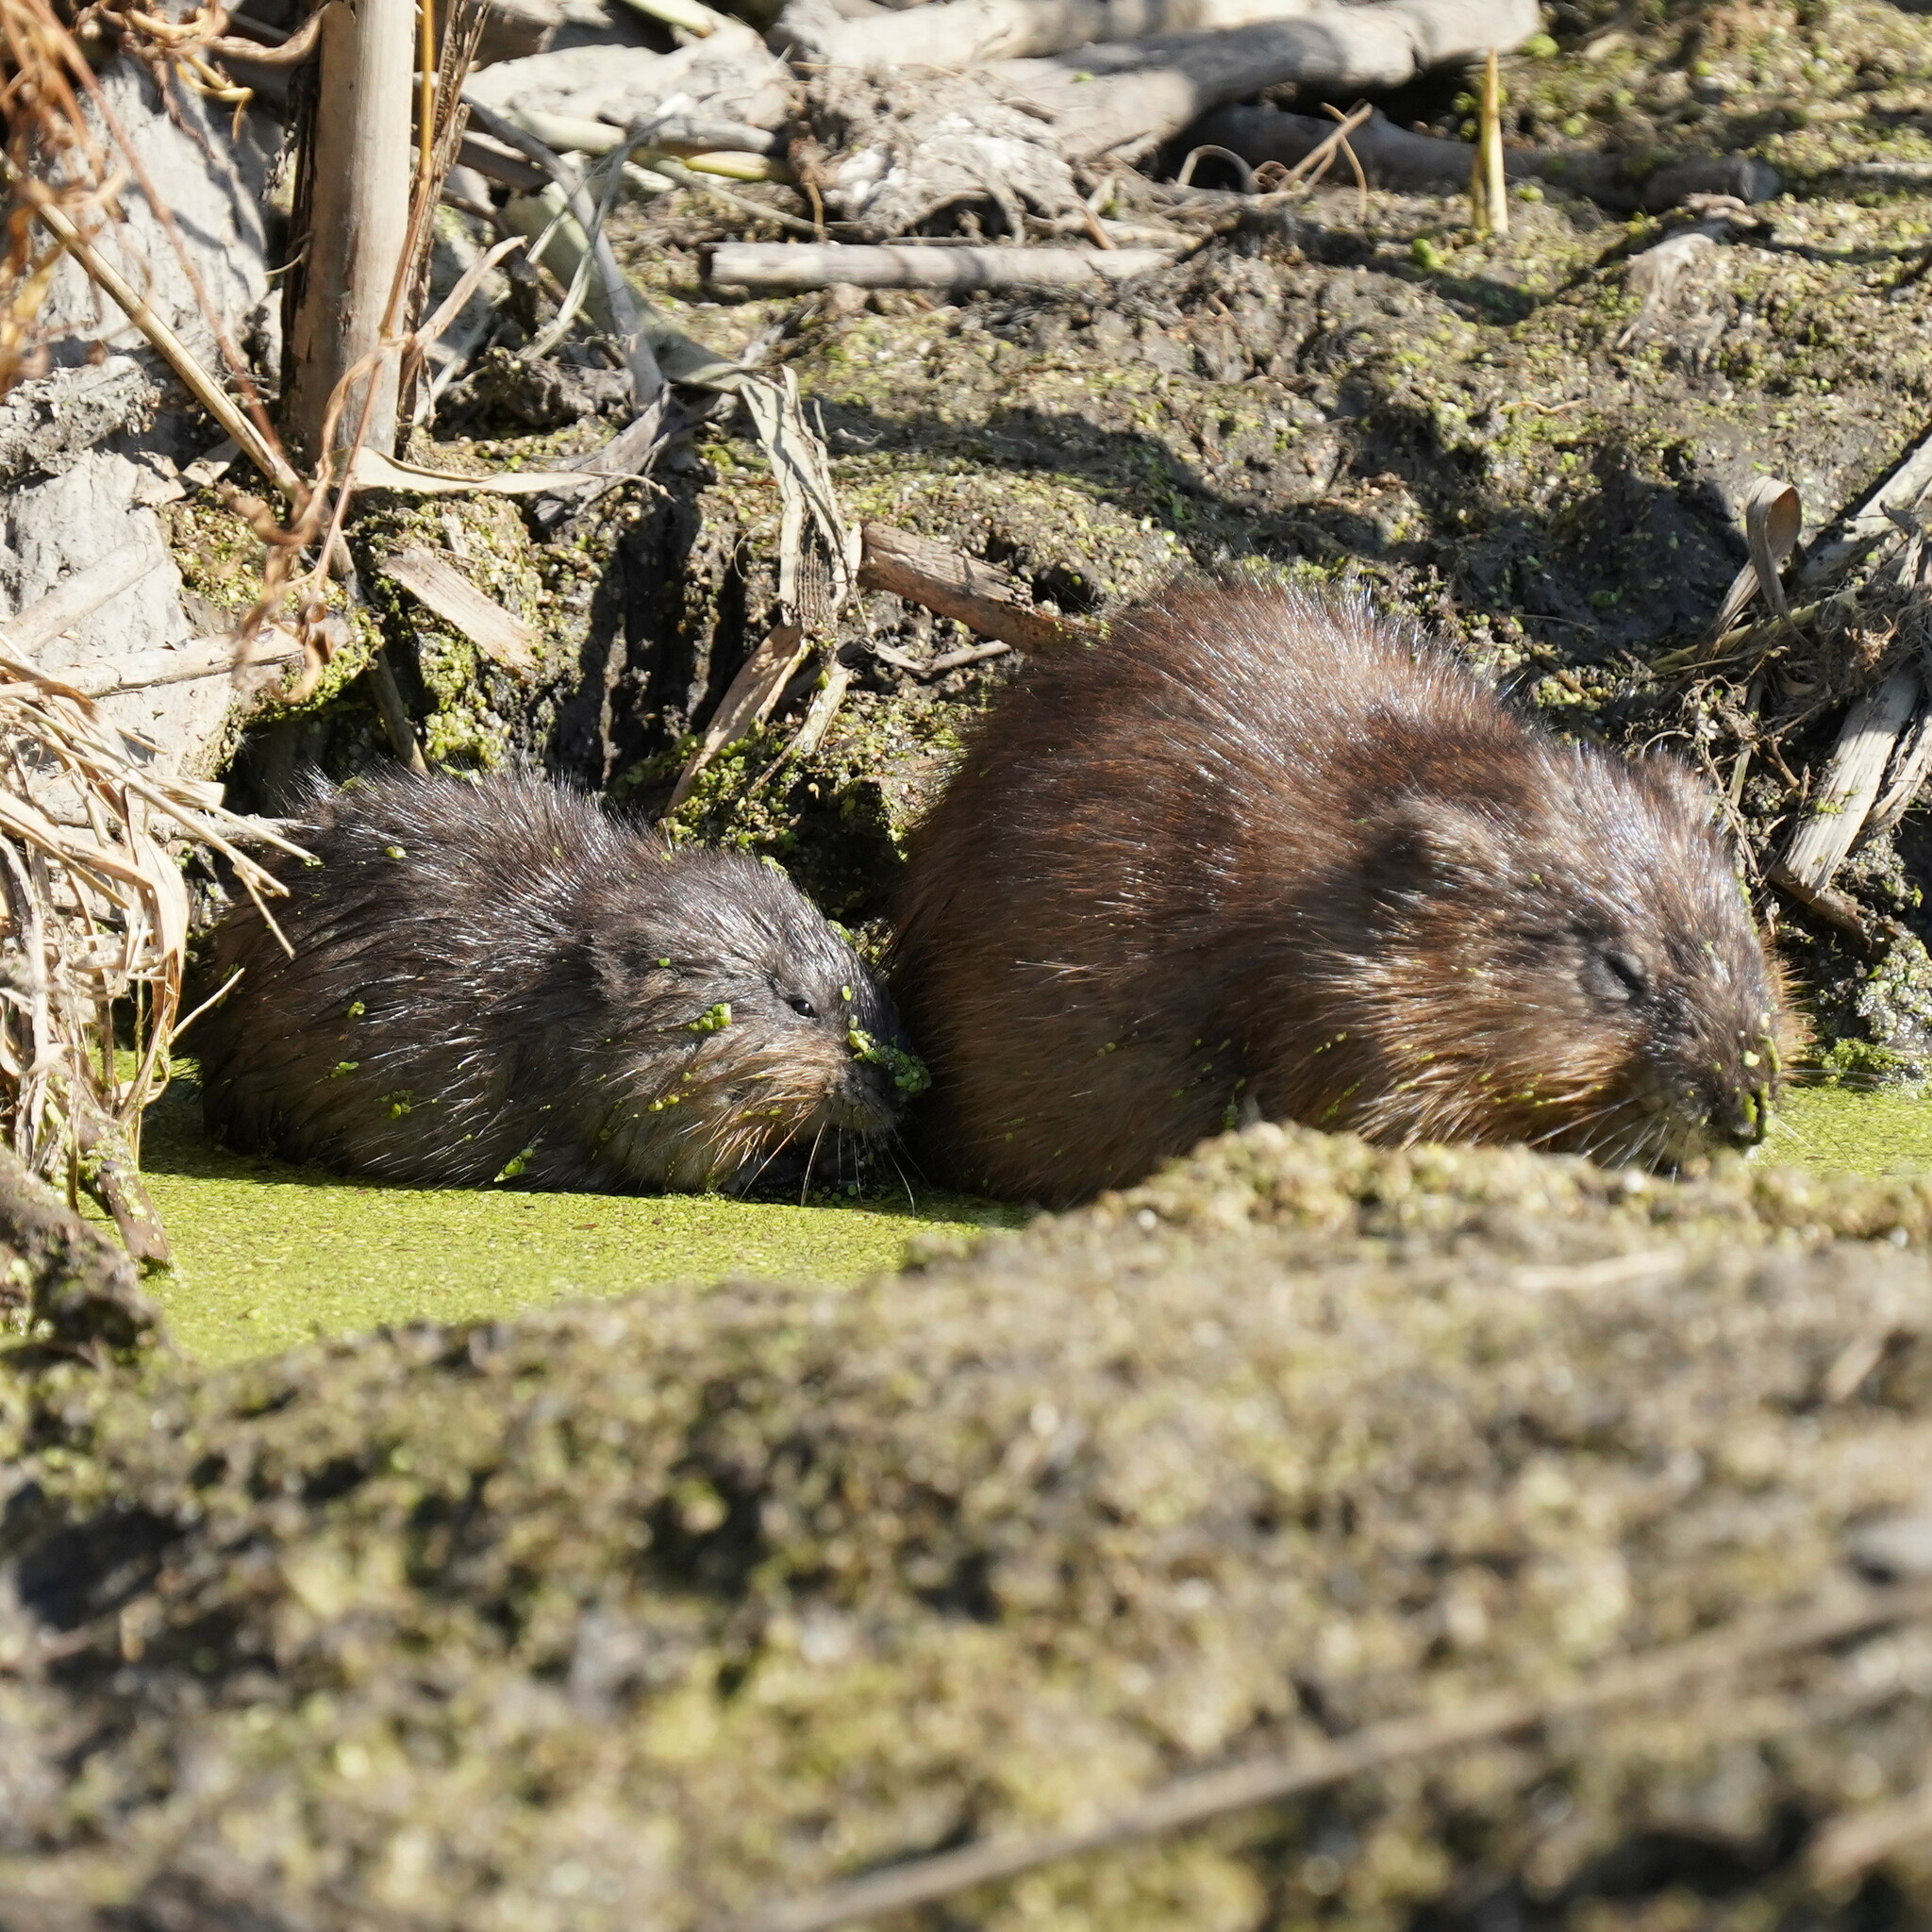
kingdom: Animalia
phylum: Chordata
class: Mammalia
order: Rodentia
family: Cricetidae
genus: Ondatra
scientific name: Ondatra zibethicus
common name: Muskrat
